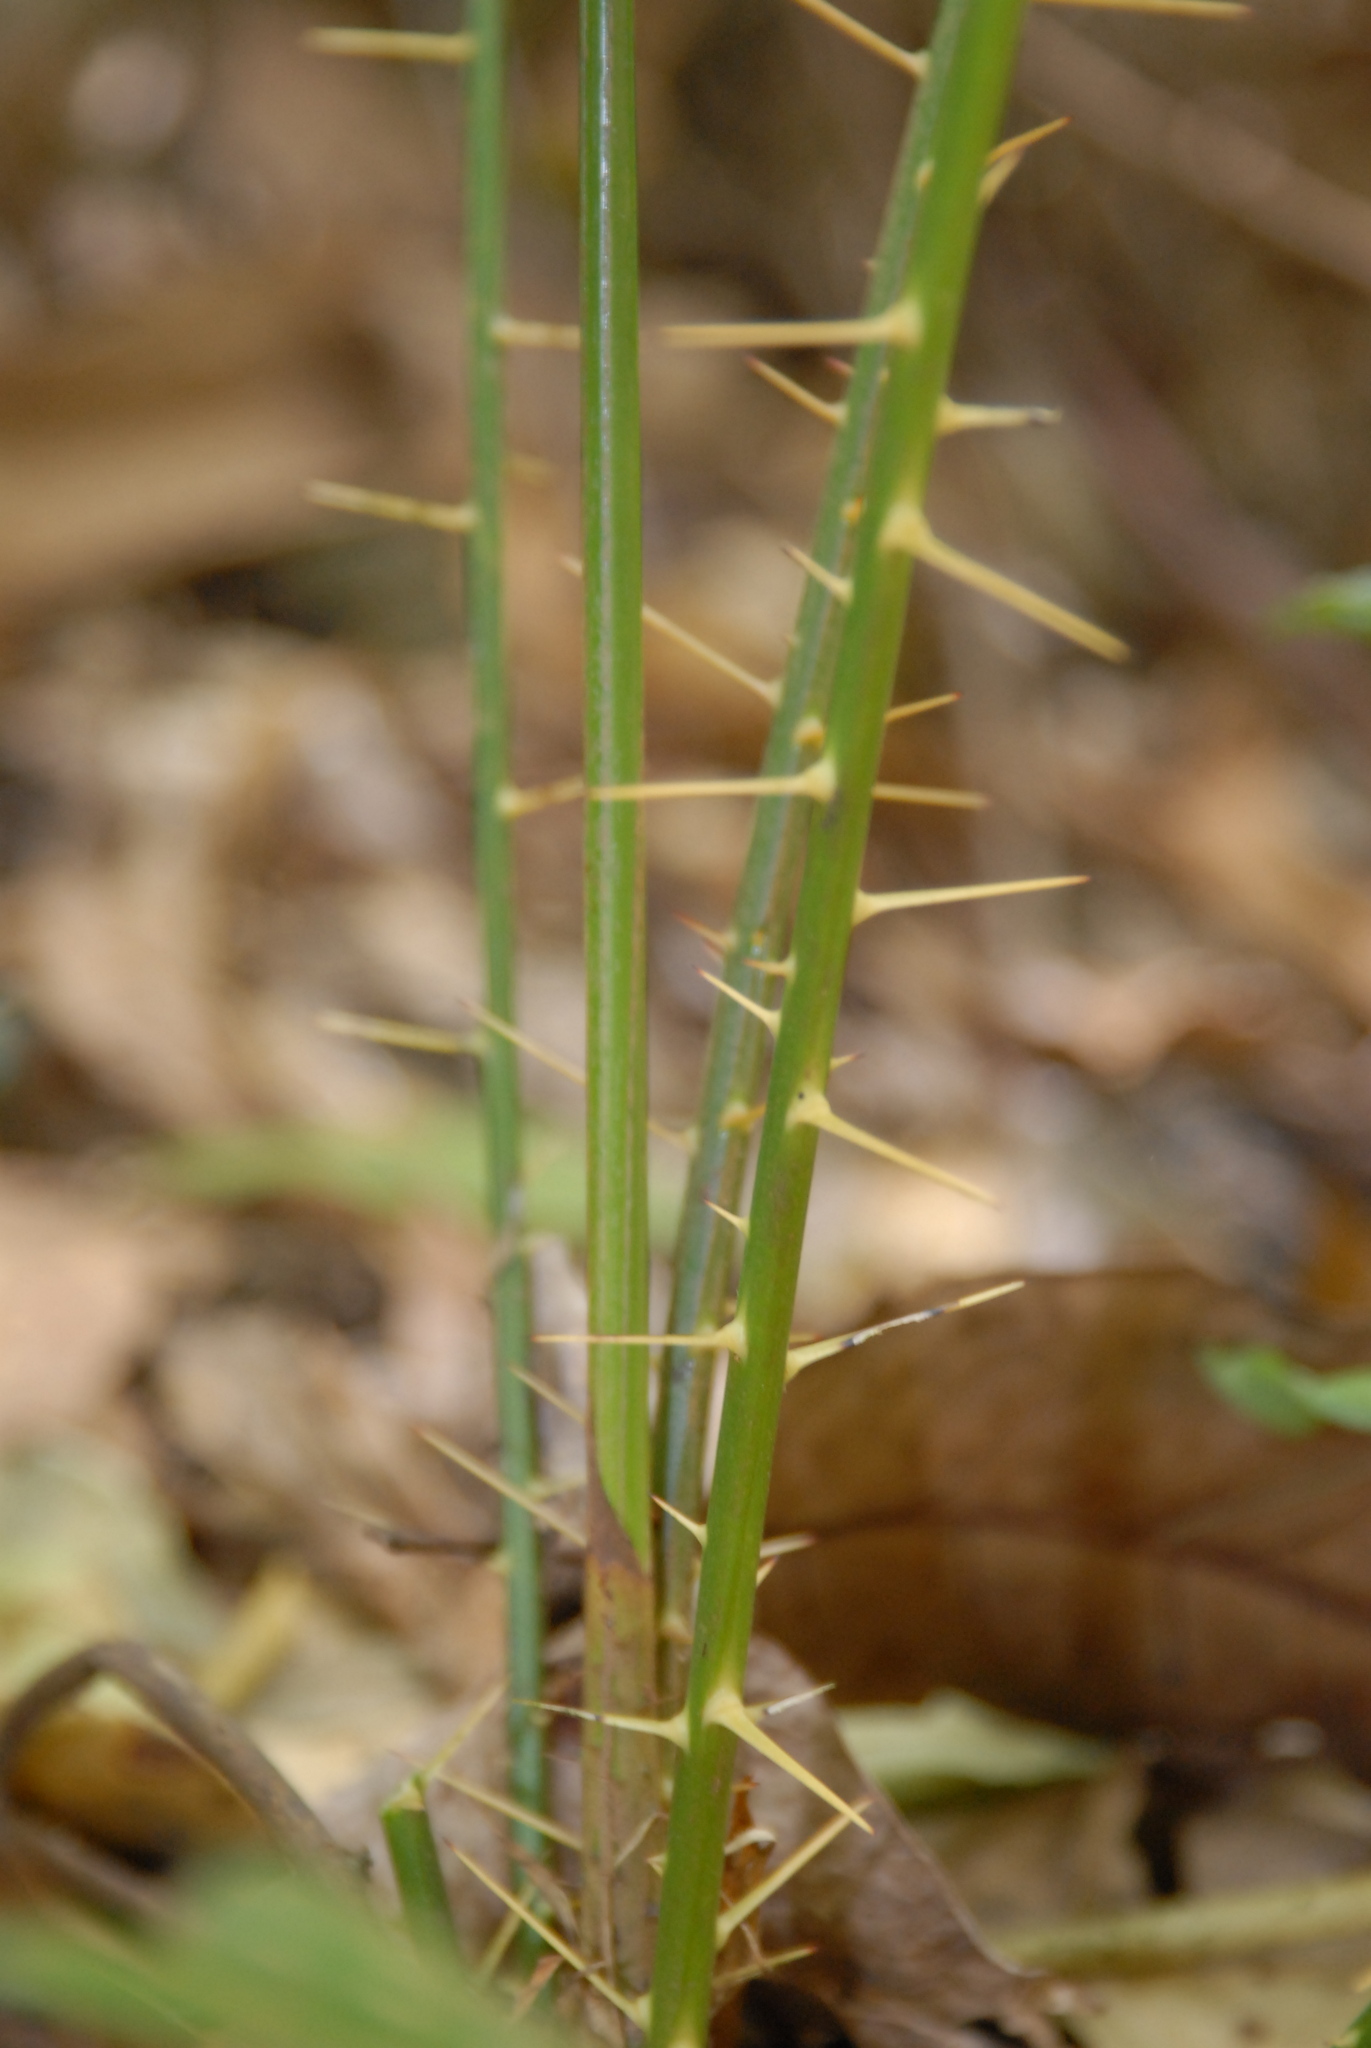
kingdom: Plantae
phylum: Tracheophyta
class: Liliopsida
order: Arecales
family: Arecaceae
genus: Calamus
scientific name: Calamus formosanus
